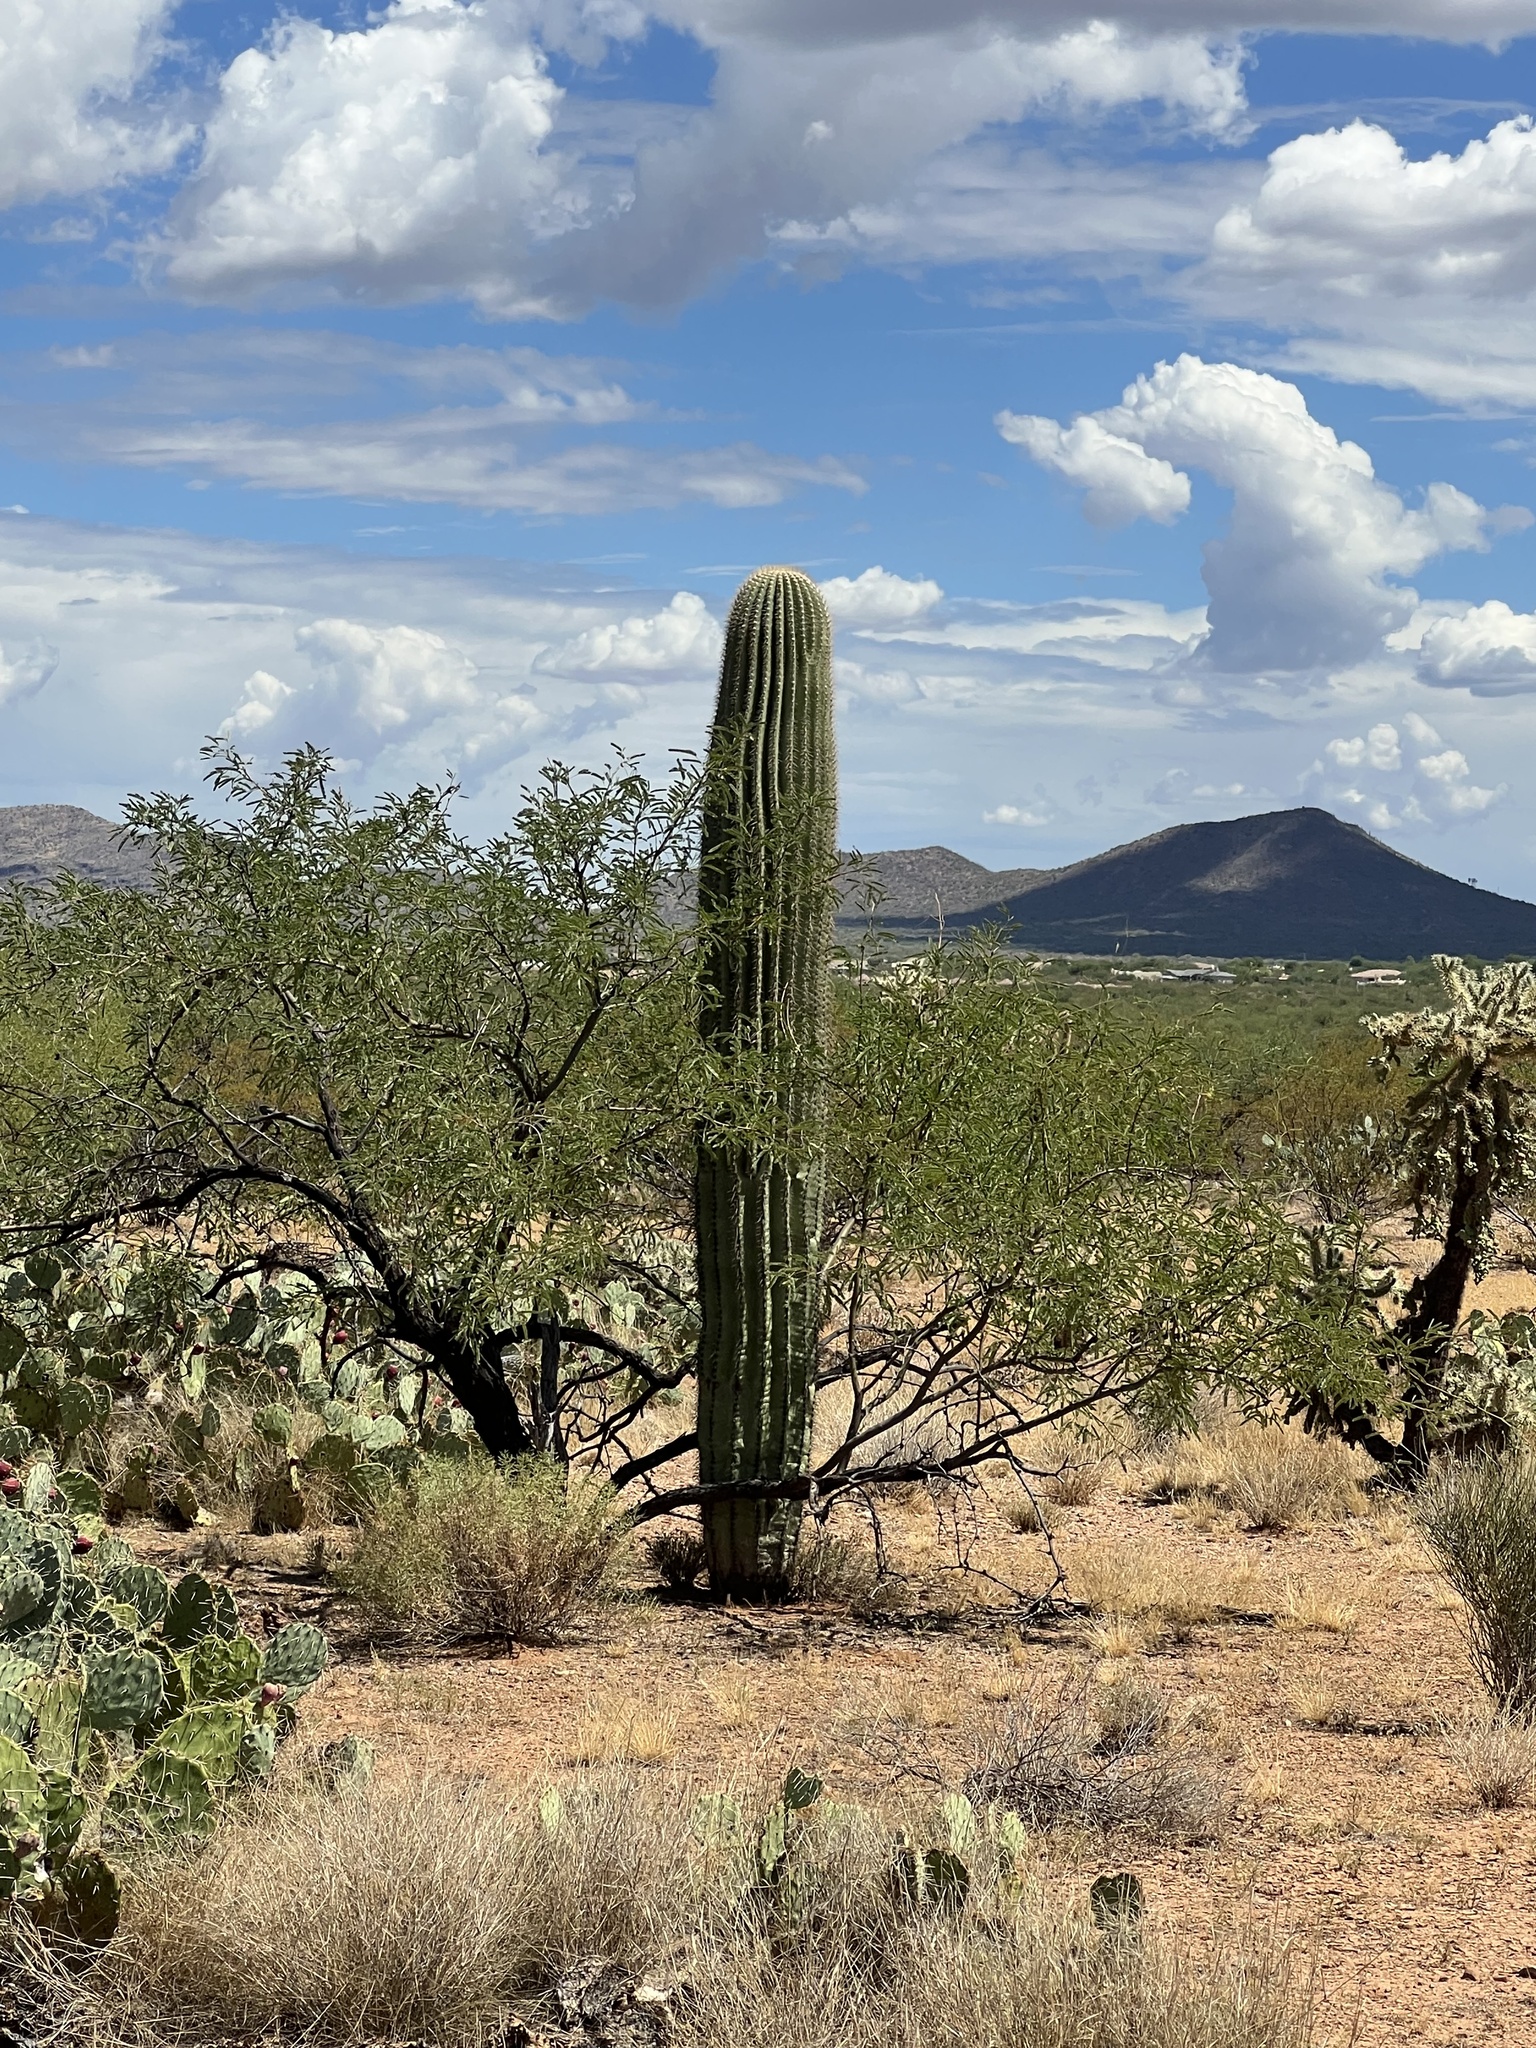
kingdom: Plantae
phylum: Tracheophyta
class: Magnoliopsida
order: Caryophyllales
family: Cactaceae
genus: Carnegiea
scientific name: Carnegiea gigantea
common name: Saguaro
